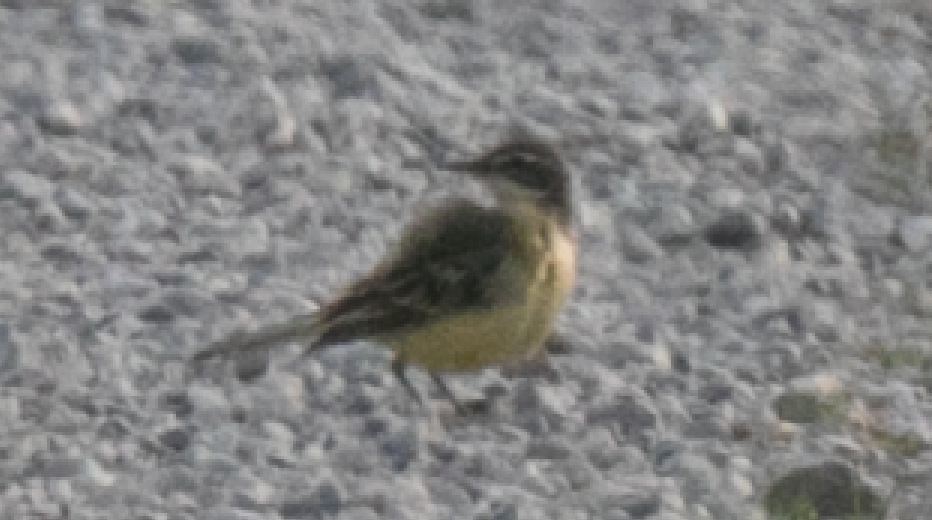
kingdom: Animalia
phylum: Chordata
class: Aves
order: Passeriformes
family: Motacillidae
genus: Motacilla
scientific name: Motacilla flava
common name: Western yellow wagtail
